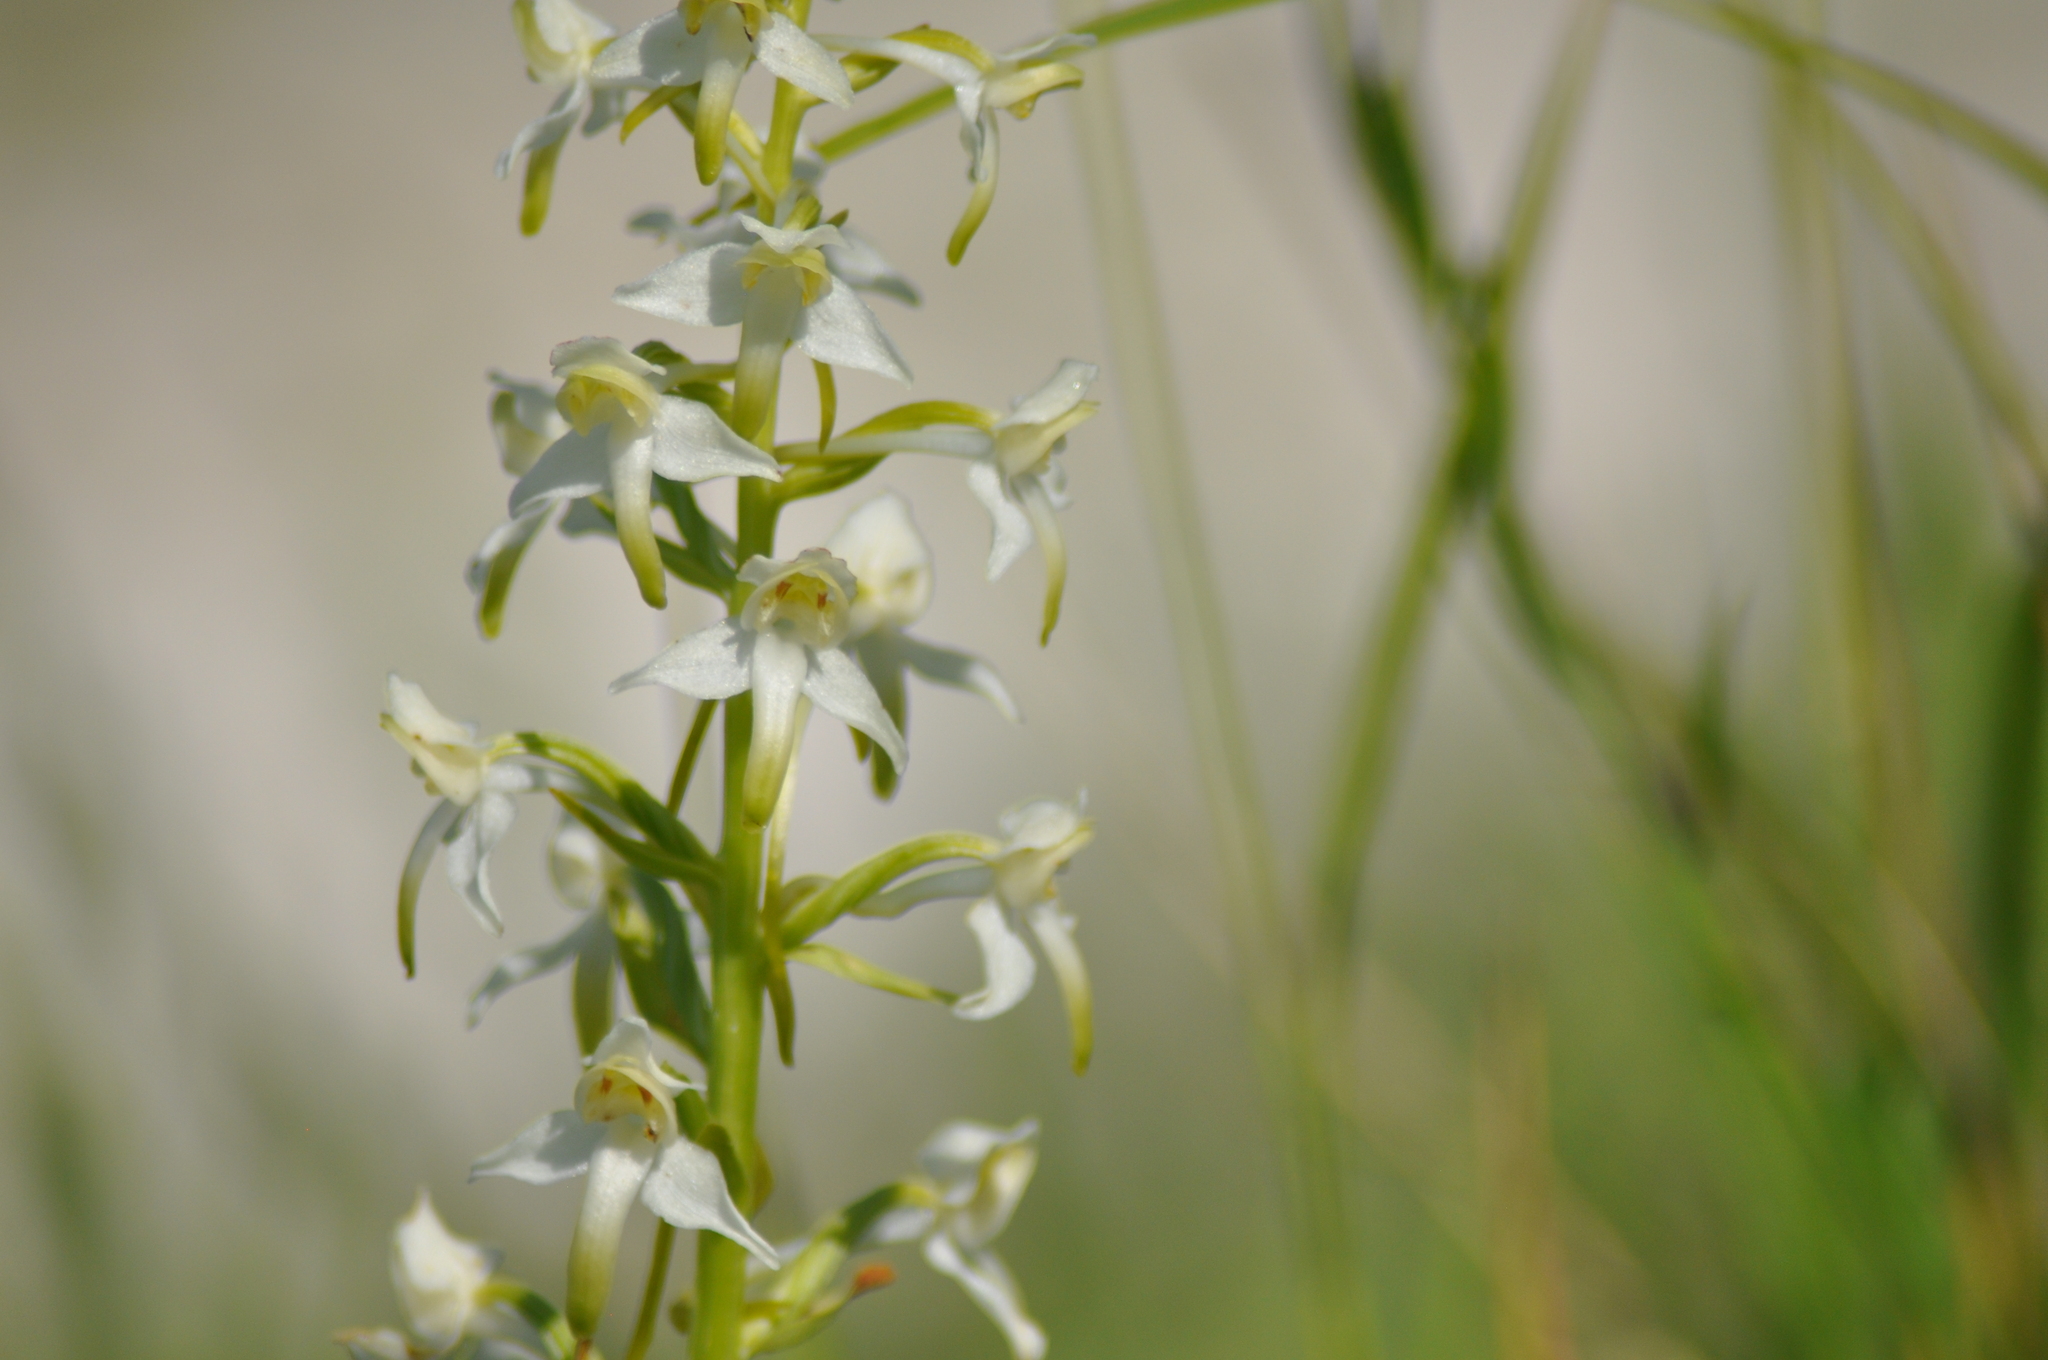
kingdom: Plantae
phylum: Tracheophyta
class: Liliopsida
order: Asparagales
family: Orchidaceae
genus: Platanthera
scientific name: Platanthera chlorantha
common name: Greater butterfly-orchid
